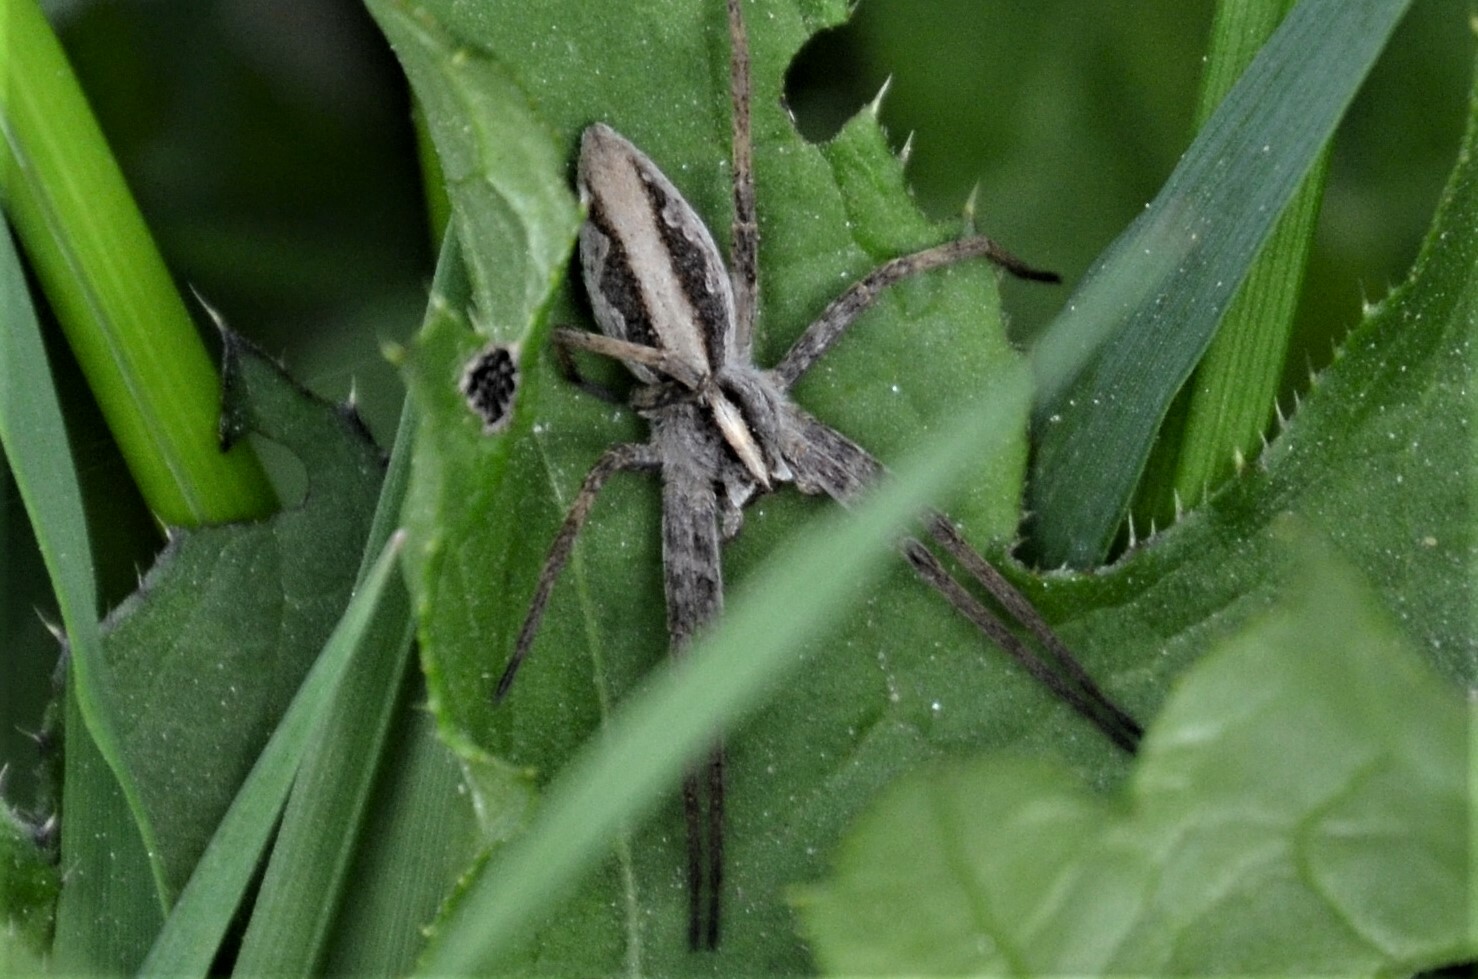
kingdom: Animalia
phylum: Arthropoda
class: Arachnida
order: Araneae
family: Pisauridae
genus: Pisaura
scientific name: Pisaura mirabilis
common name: Tent spider
